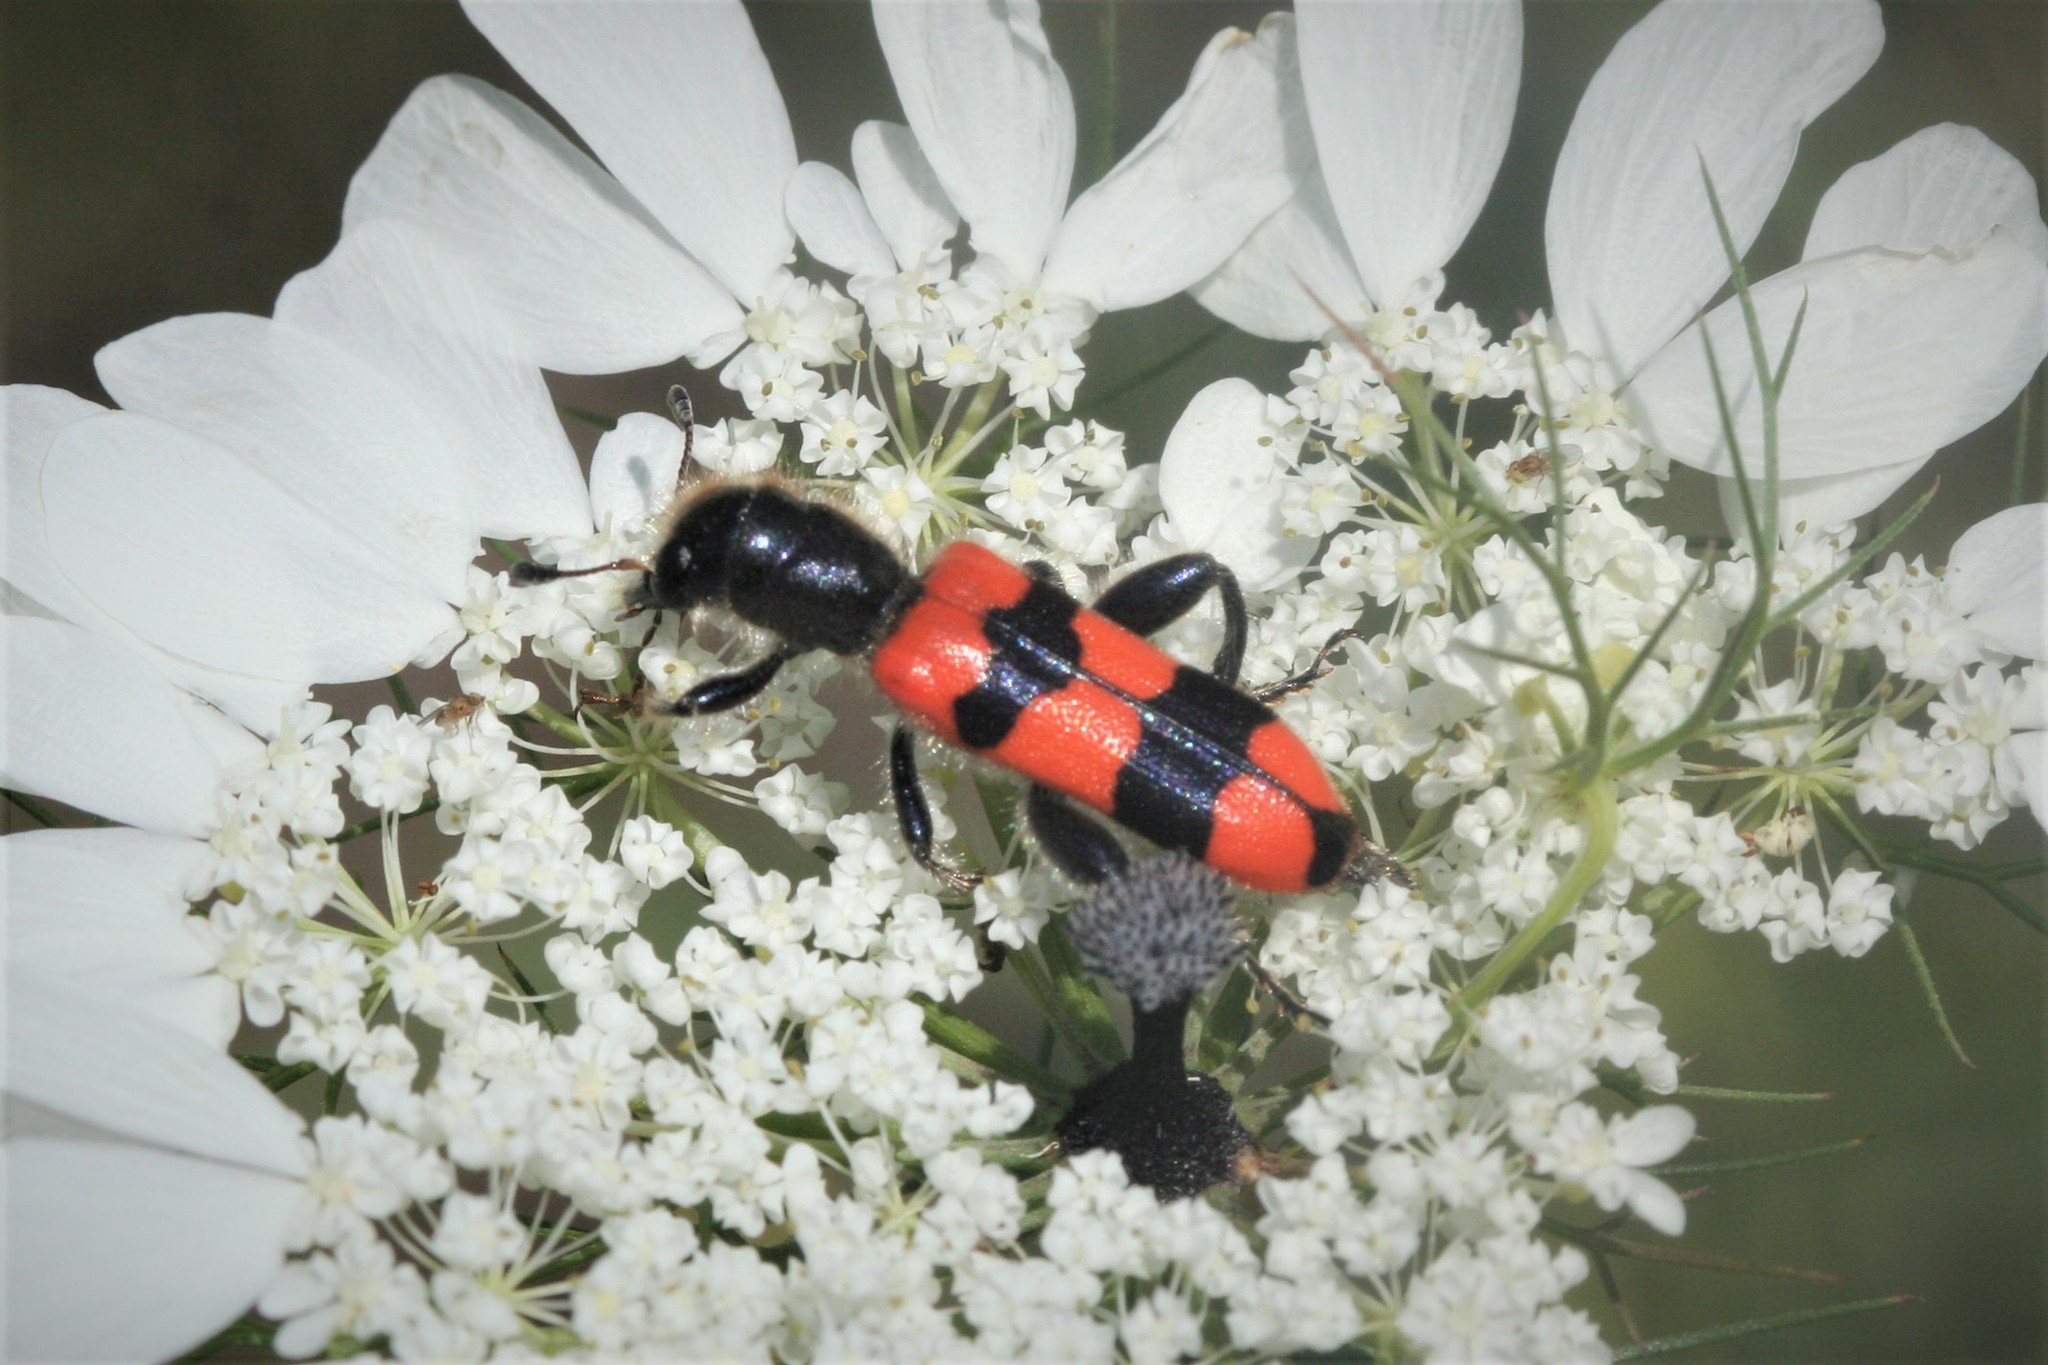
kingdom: Animalia
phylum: Arthropoda
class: Insecta
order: Coleoptera
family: Cleridae
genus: Trichodes
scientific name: Trichodes crabroniformis
